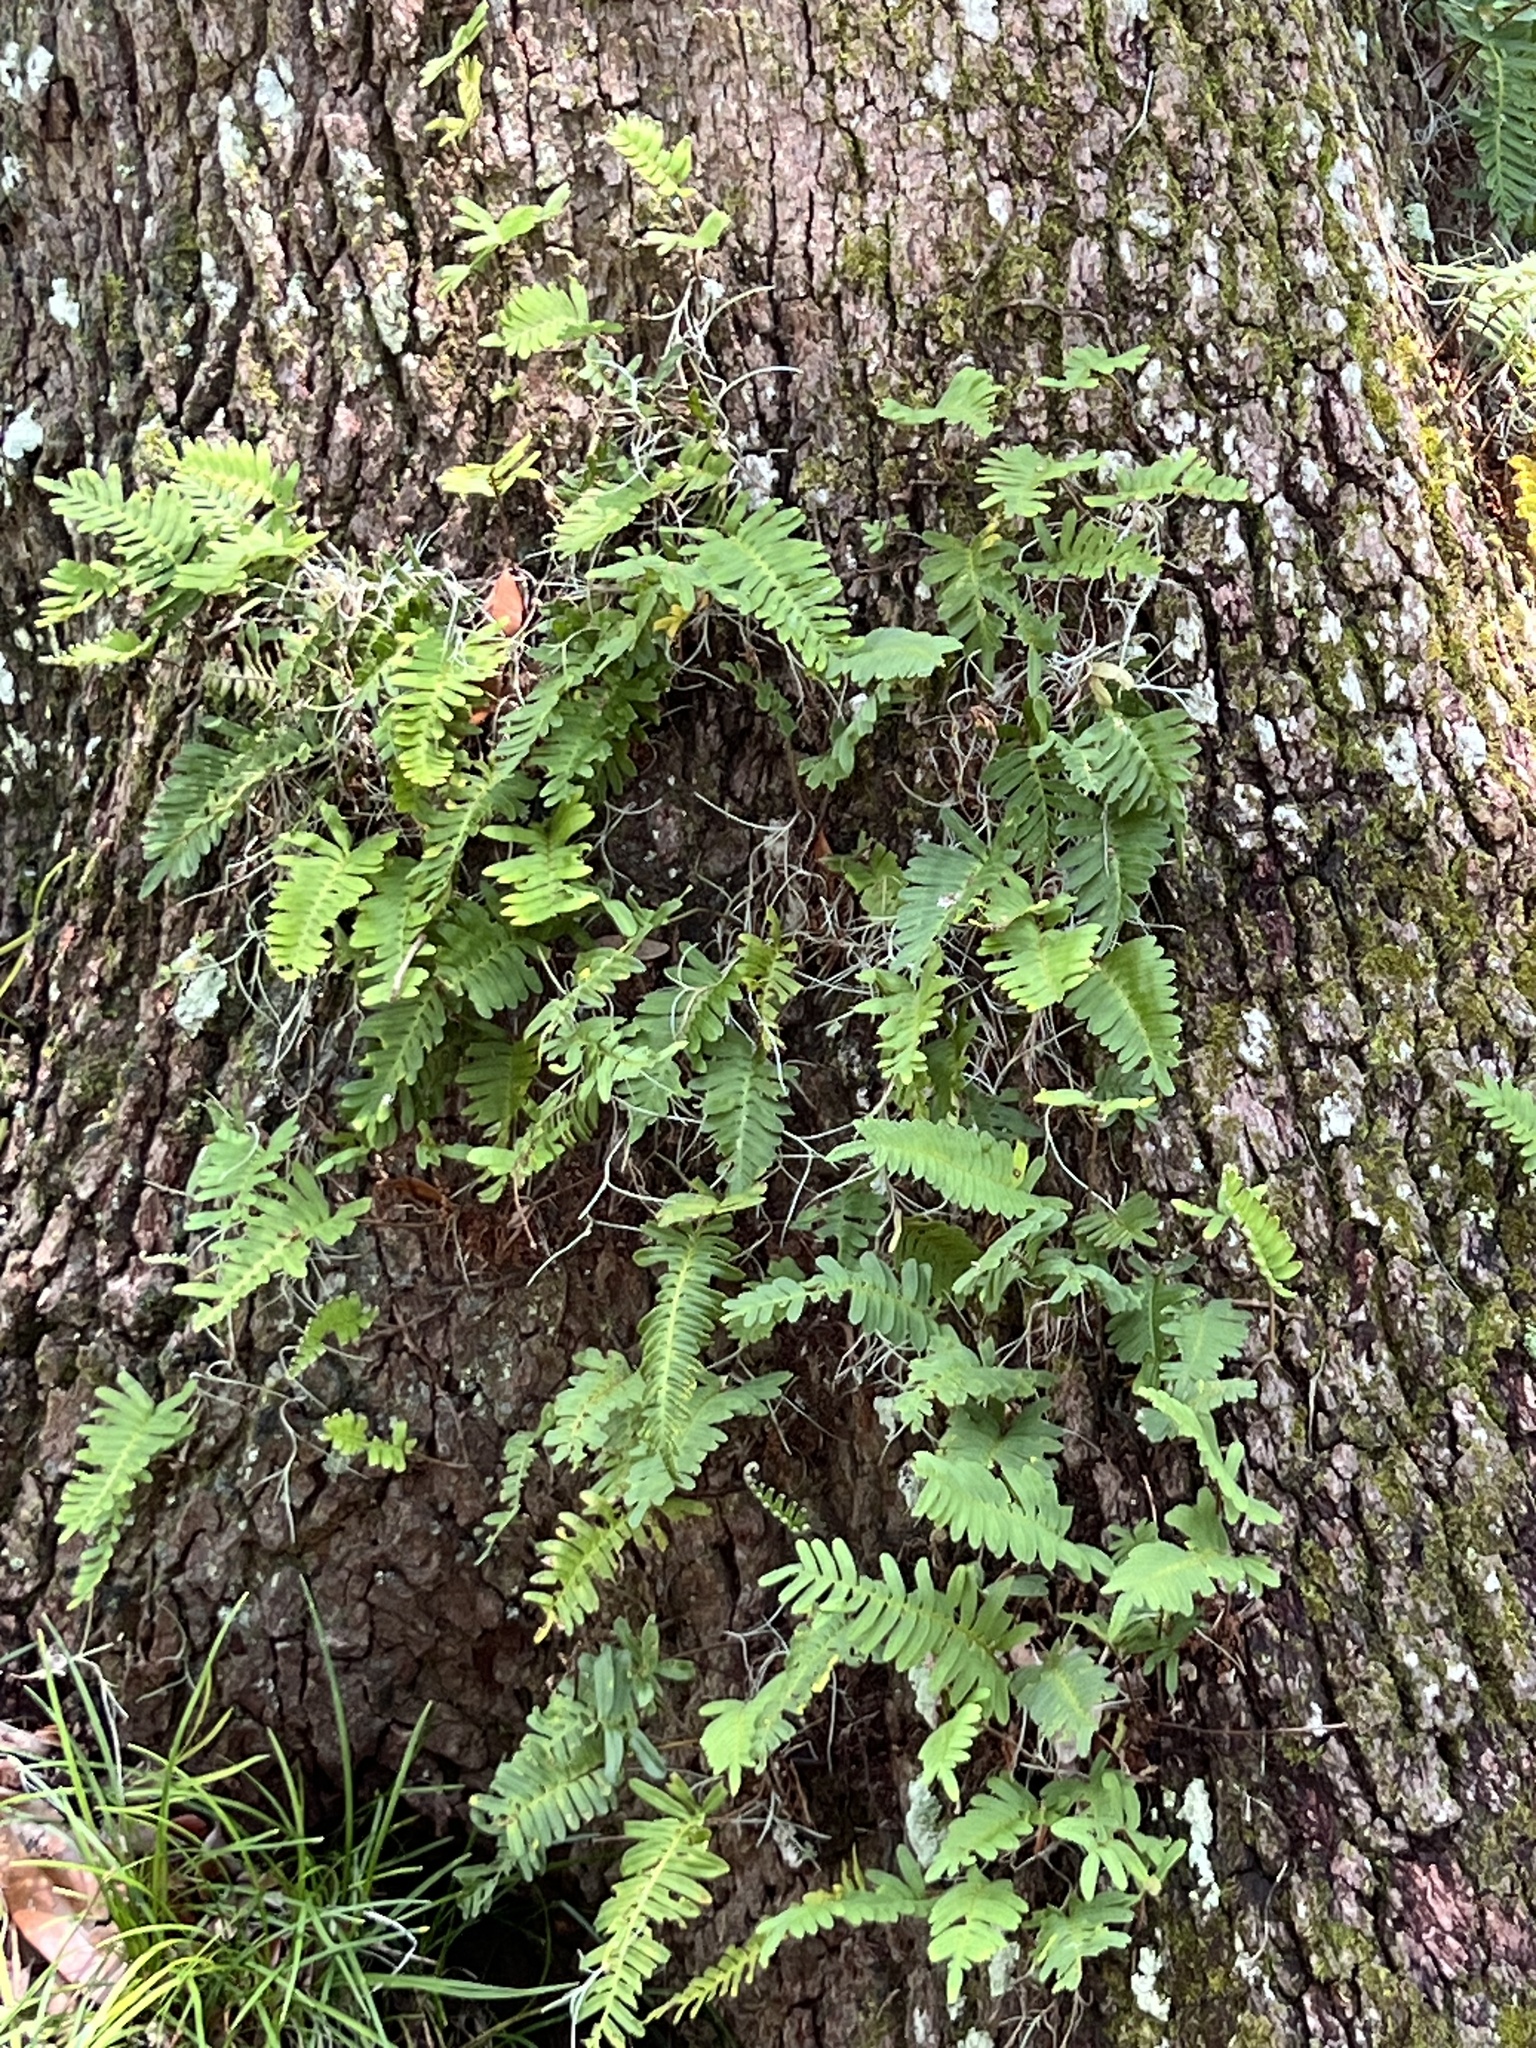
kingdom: Plantae
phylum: Tracheophyta
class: Polypodiopsida
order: Polypodiales
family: Polypodiaceae
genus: Pleopeltis
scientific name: Pleopeltis michauxiana
